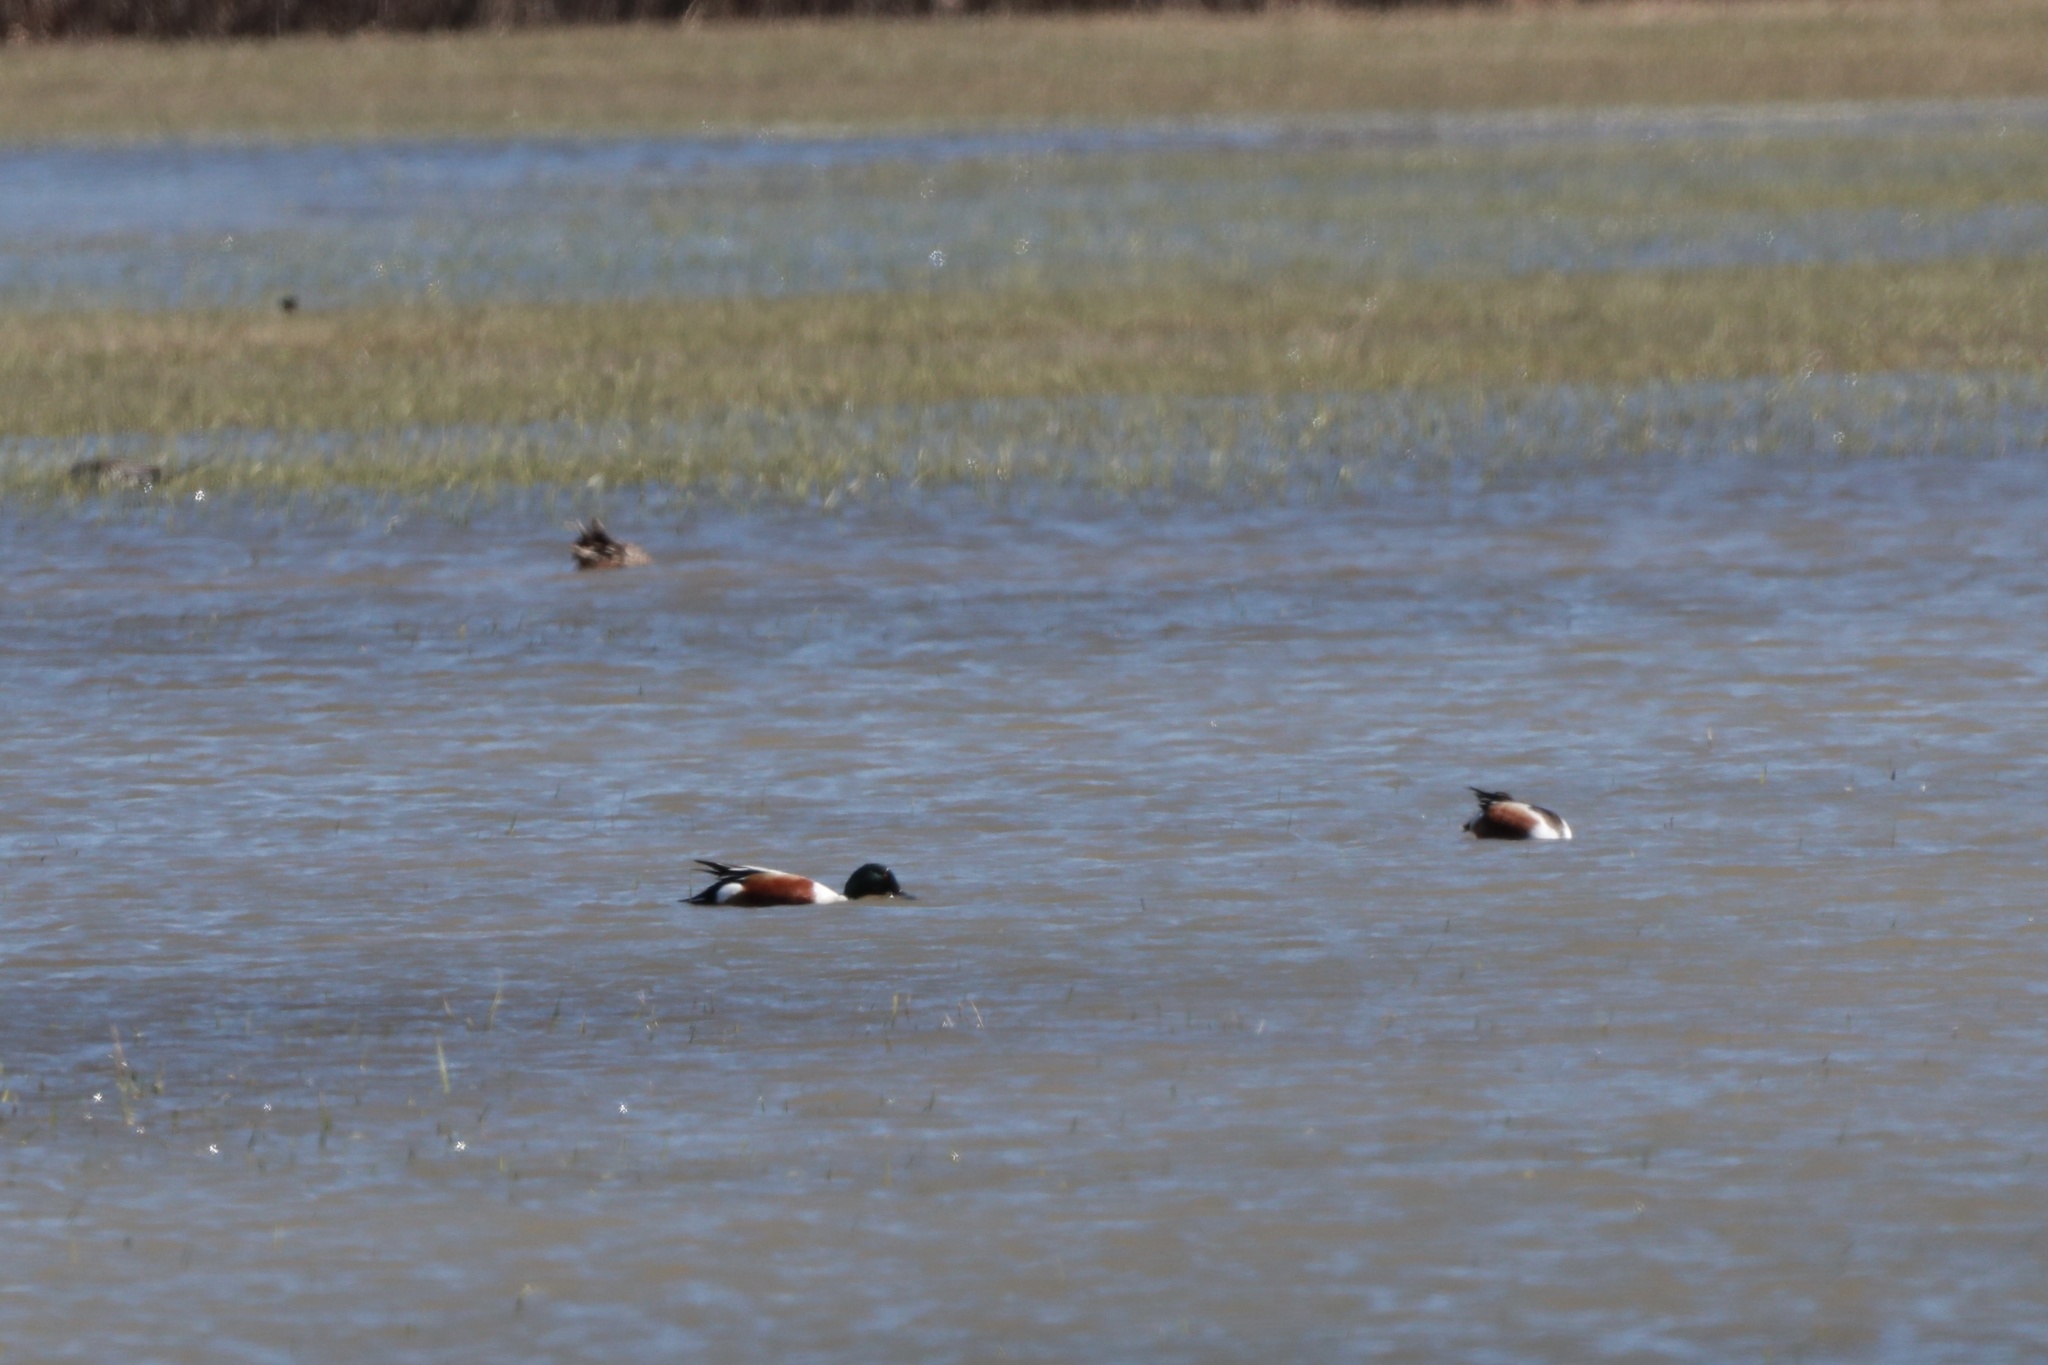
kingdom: Animalia
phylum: Chordata
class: Aves
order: Anseriformes
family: Anatidae
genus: Spatula
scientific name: Spatula clypeata
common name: Northern shoveler
